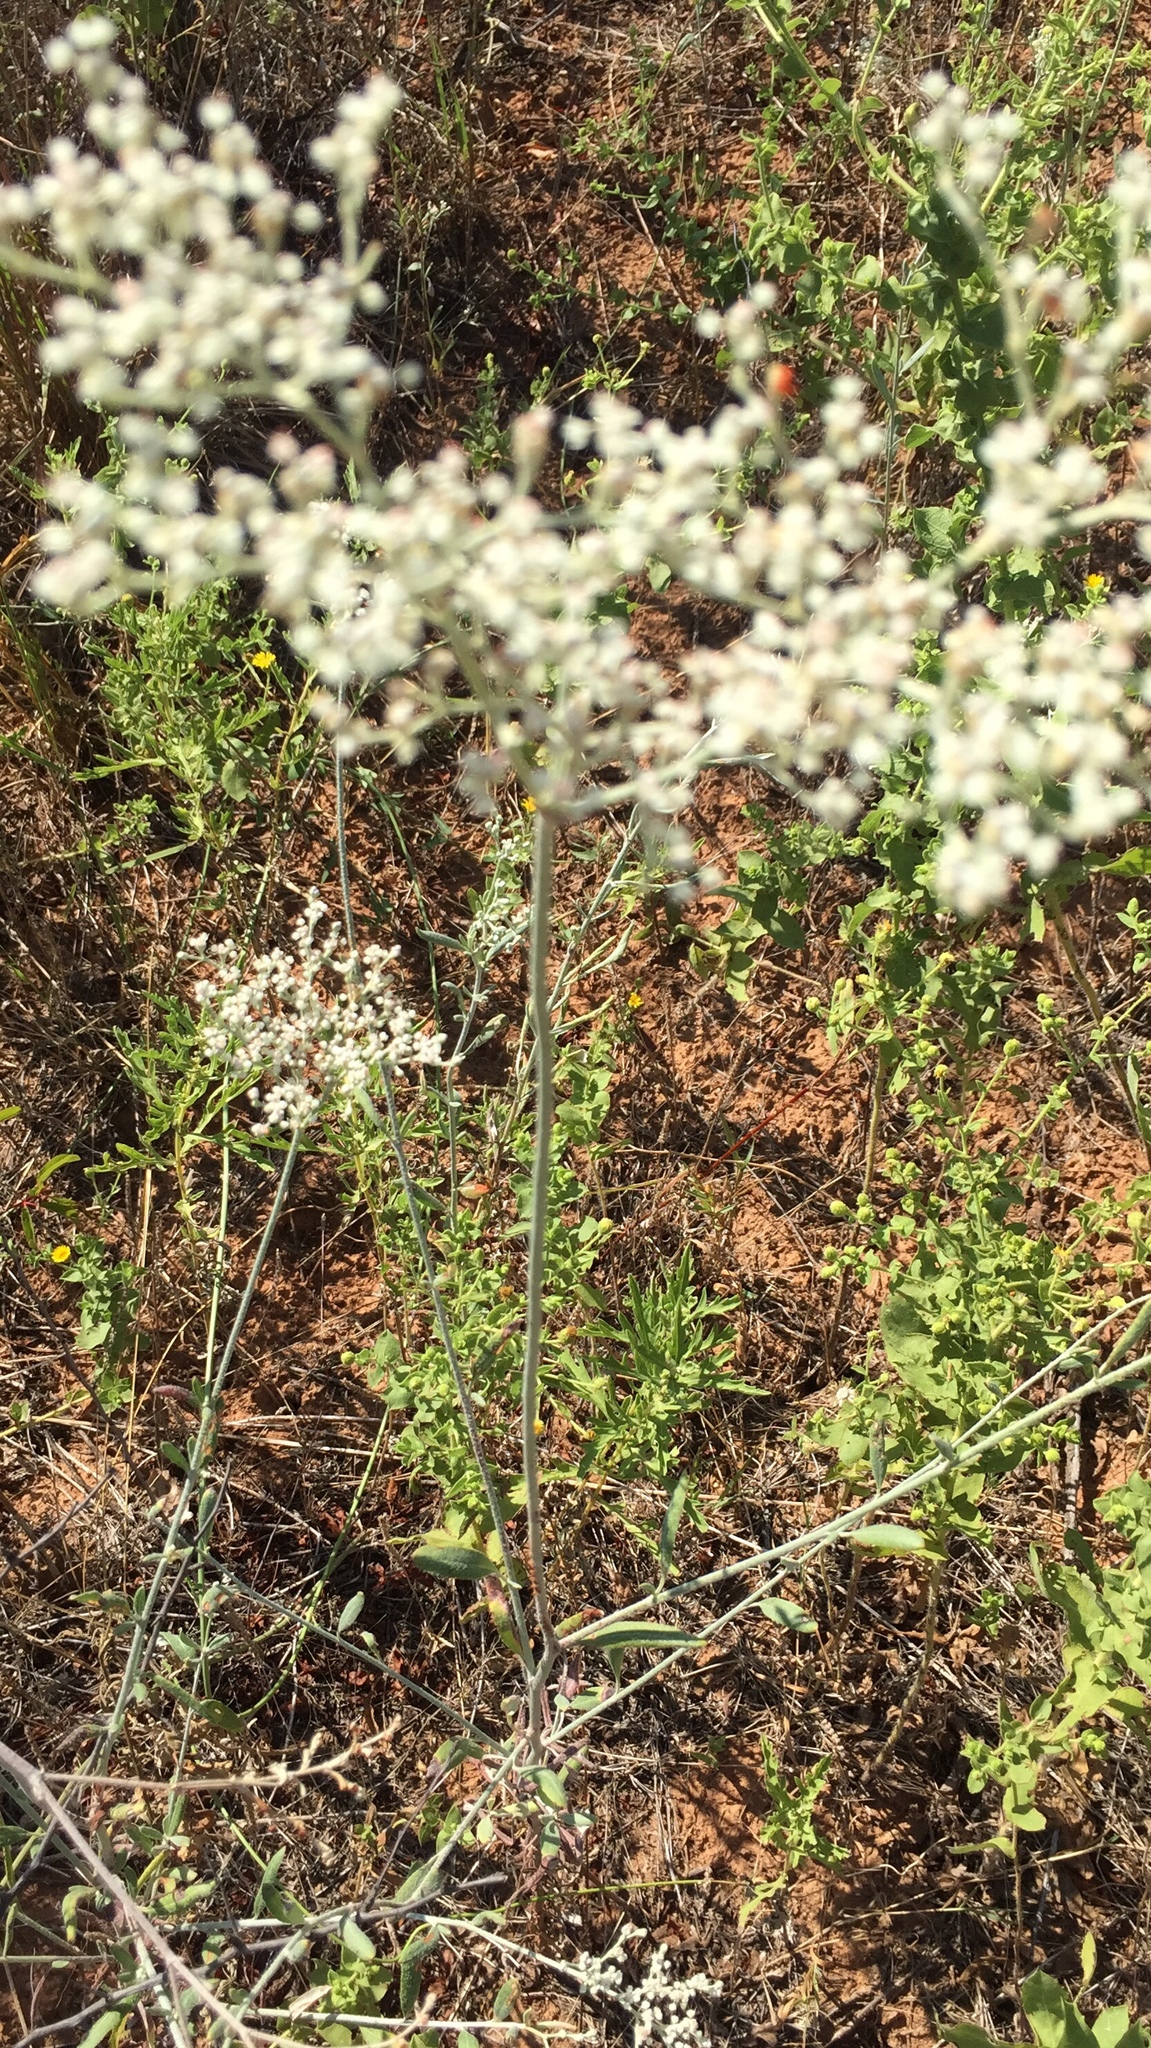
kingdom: Plantae
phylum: Tracheophyta
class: Magnoliopsida
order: Caryophyllales
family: Polygonaceae
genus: Eriogonum
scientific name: Eriogonum annuum
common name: Annual wild buckwheat
